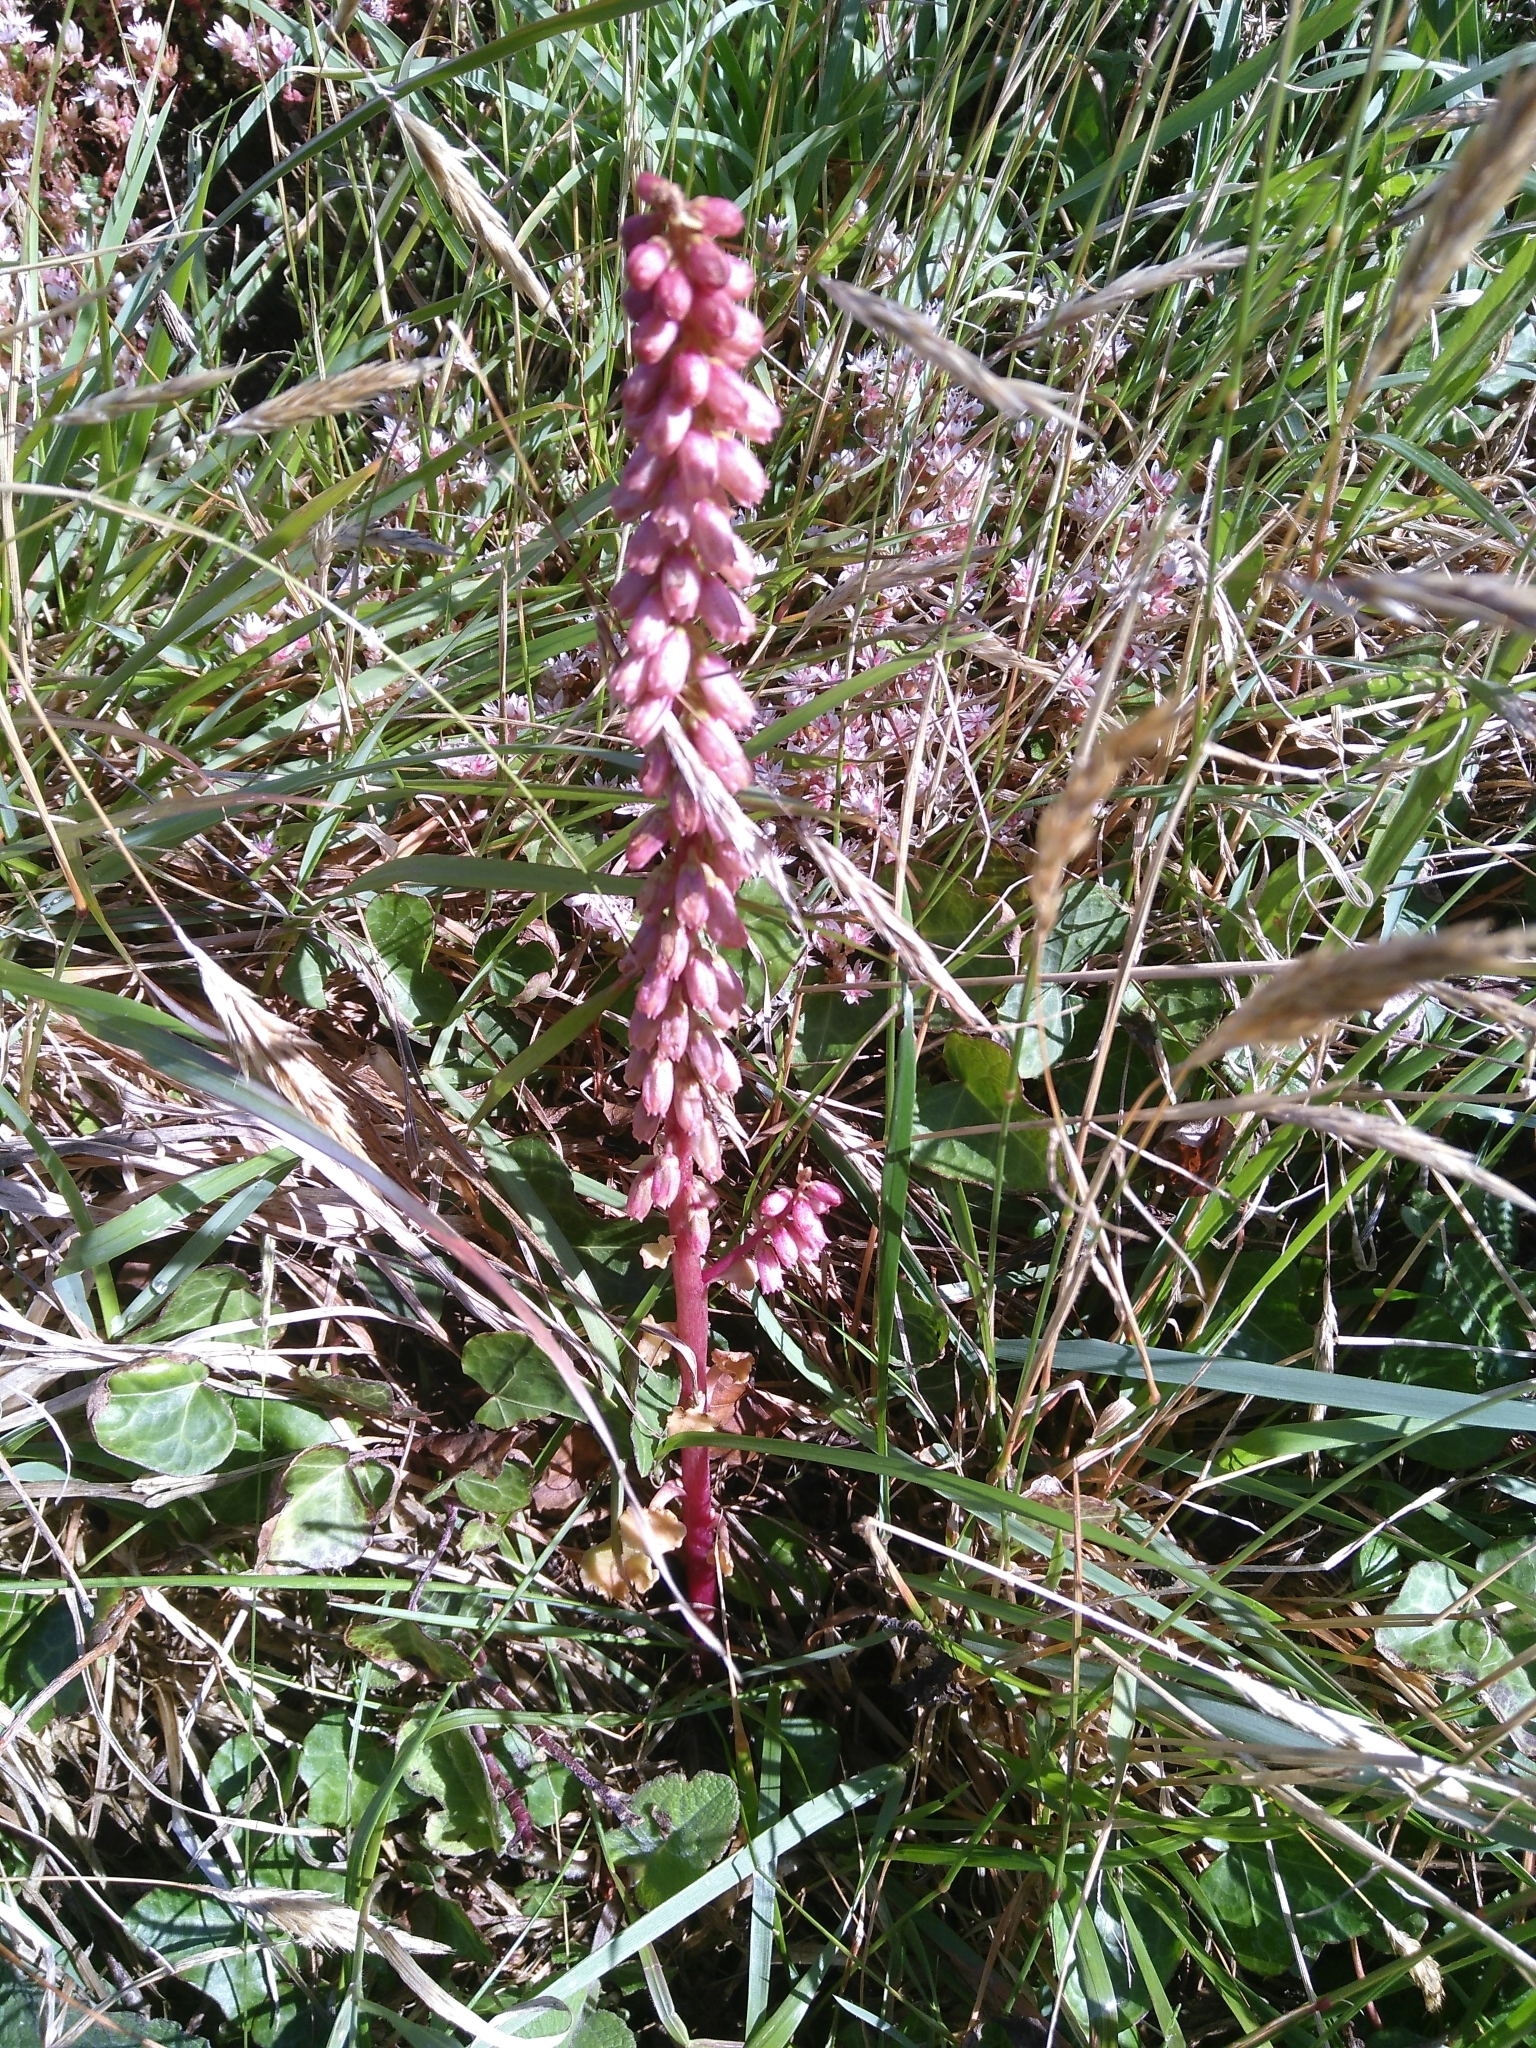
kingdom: Plantae
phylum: Tracheophyta
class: Magnoliopsida
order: Saxifragales
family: Crassulaceae
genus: Umbilicus
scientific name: Umbilicus rupestris
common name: Navelwort
